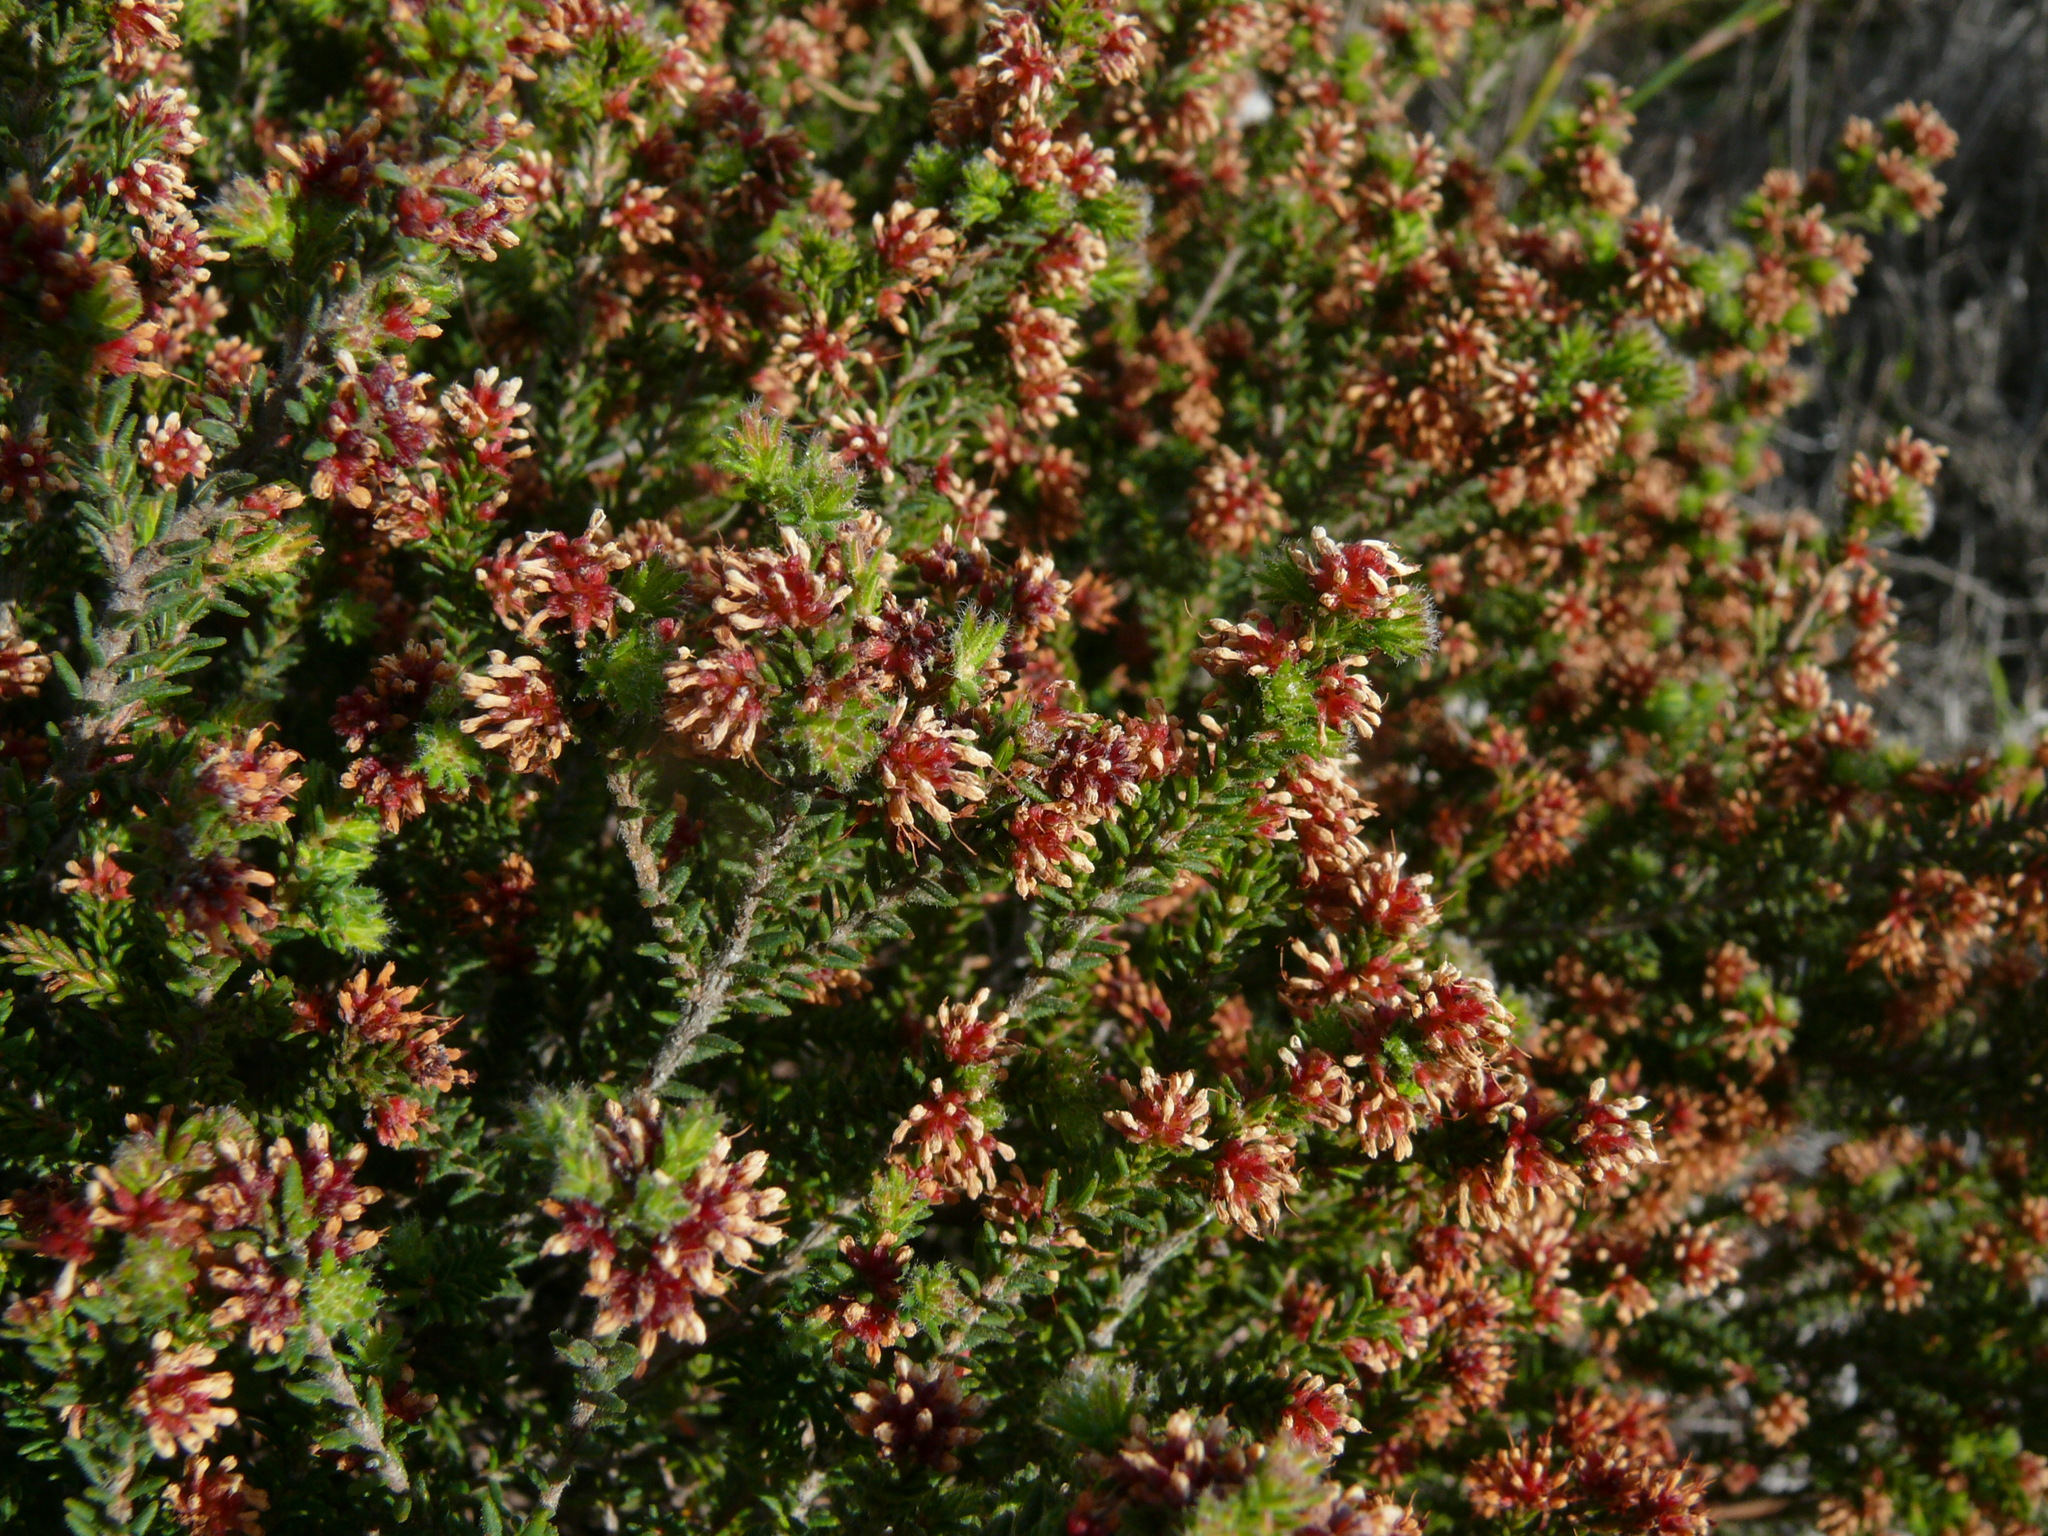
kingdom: Plantae
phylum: Tracheophyta
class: Magnoliopsida
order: Ericales
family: Ericaceae
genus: Erica
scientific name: Erica glabella
